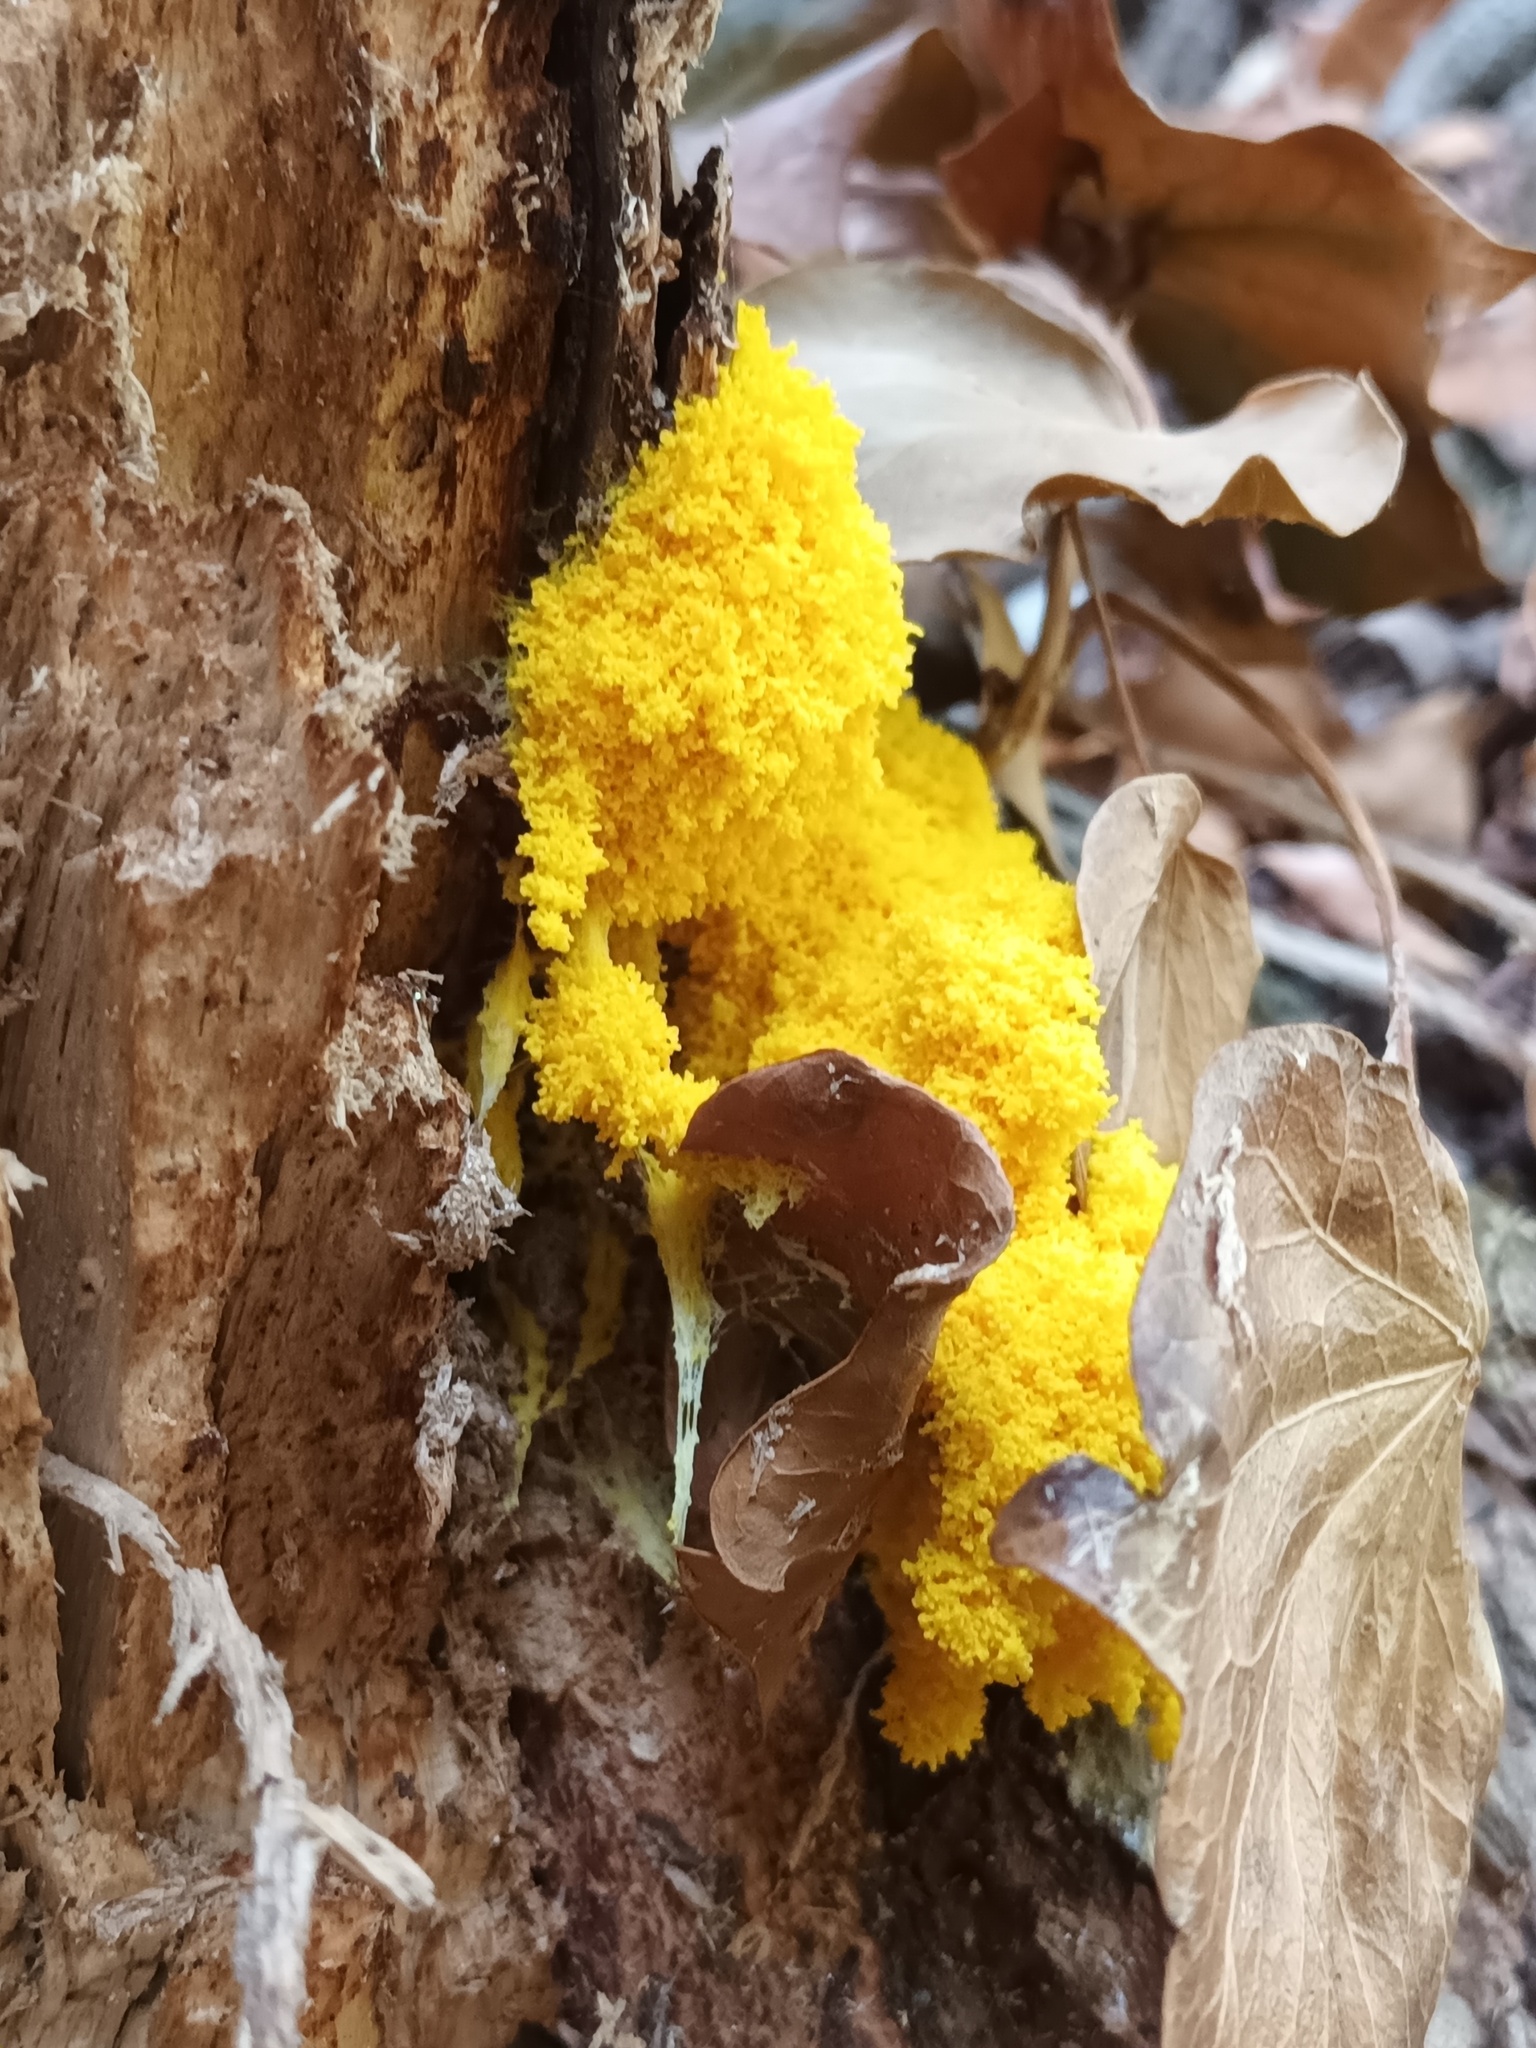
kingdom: Protozoa
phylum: Mycetozoa
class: Myxomycetes
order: Physarales
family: Physaraceae
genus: Fuligo
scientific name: Fuligo septica
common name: Dog vomit slime mold
